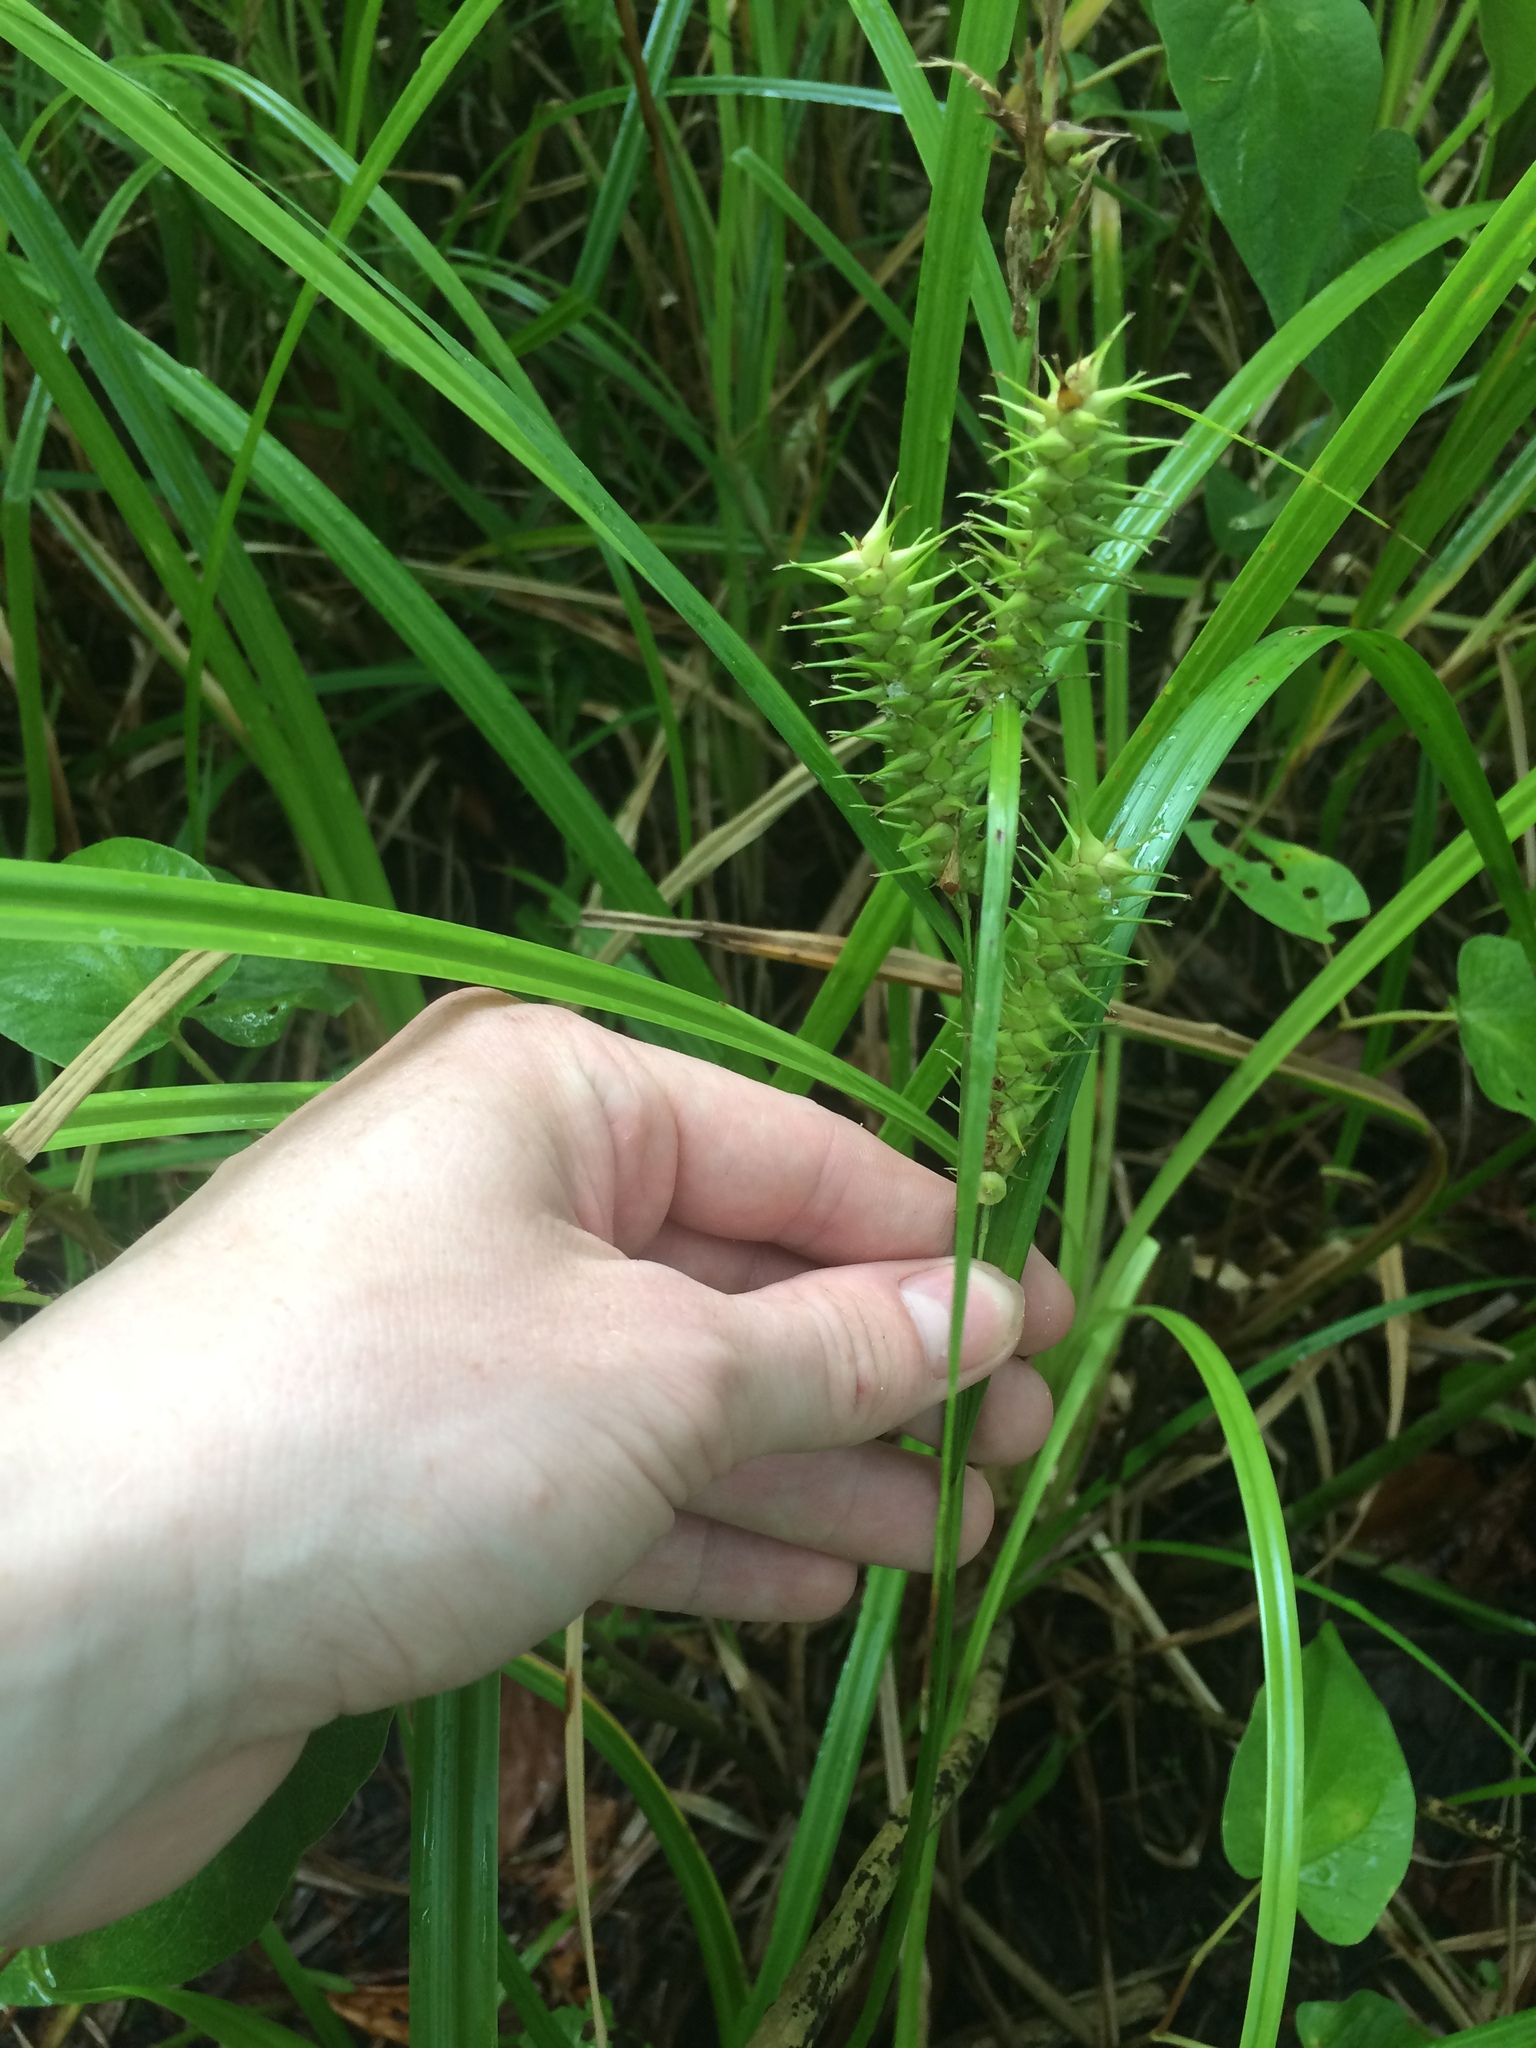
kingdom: Plantae
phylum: Tracheophyta
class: Liliopsida
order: Poales
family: Cyperaceae
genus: Carex
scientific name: Carex gigantea
